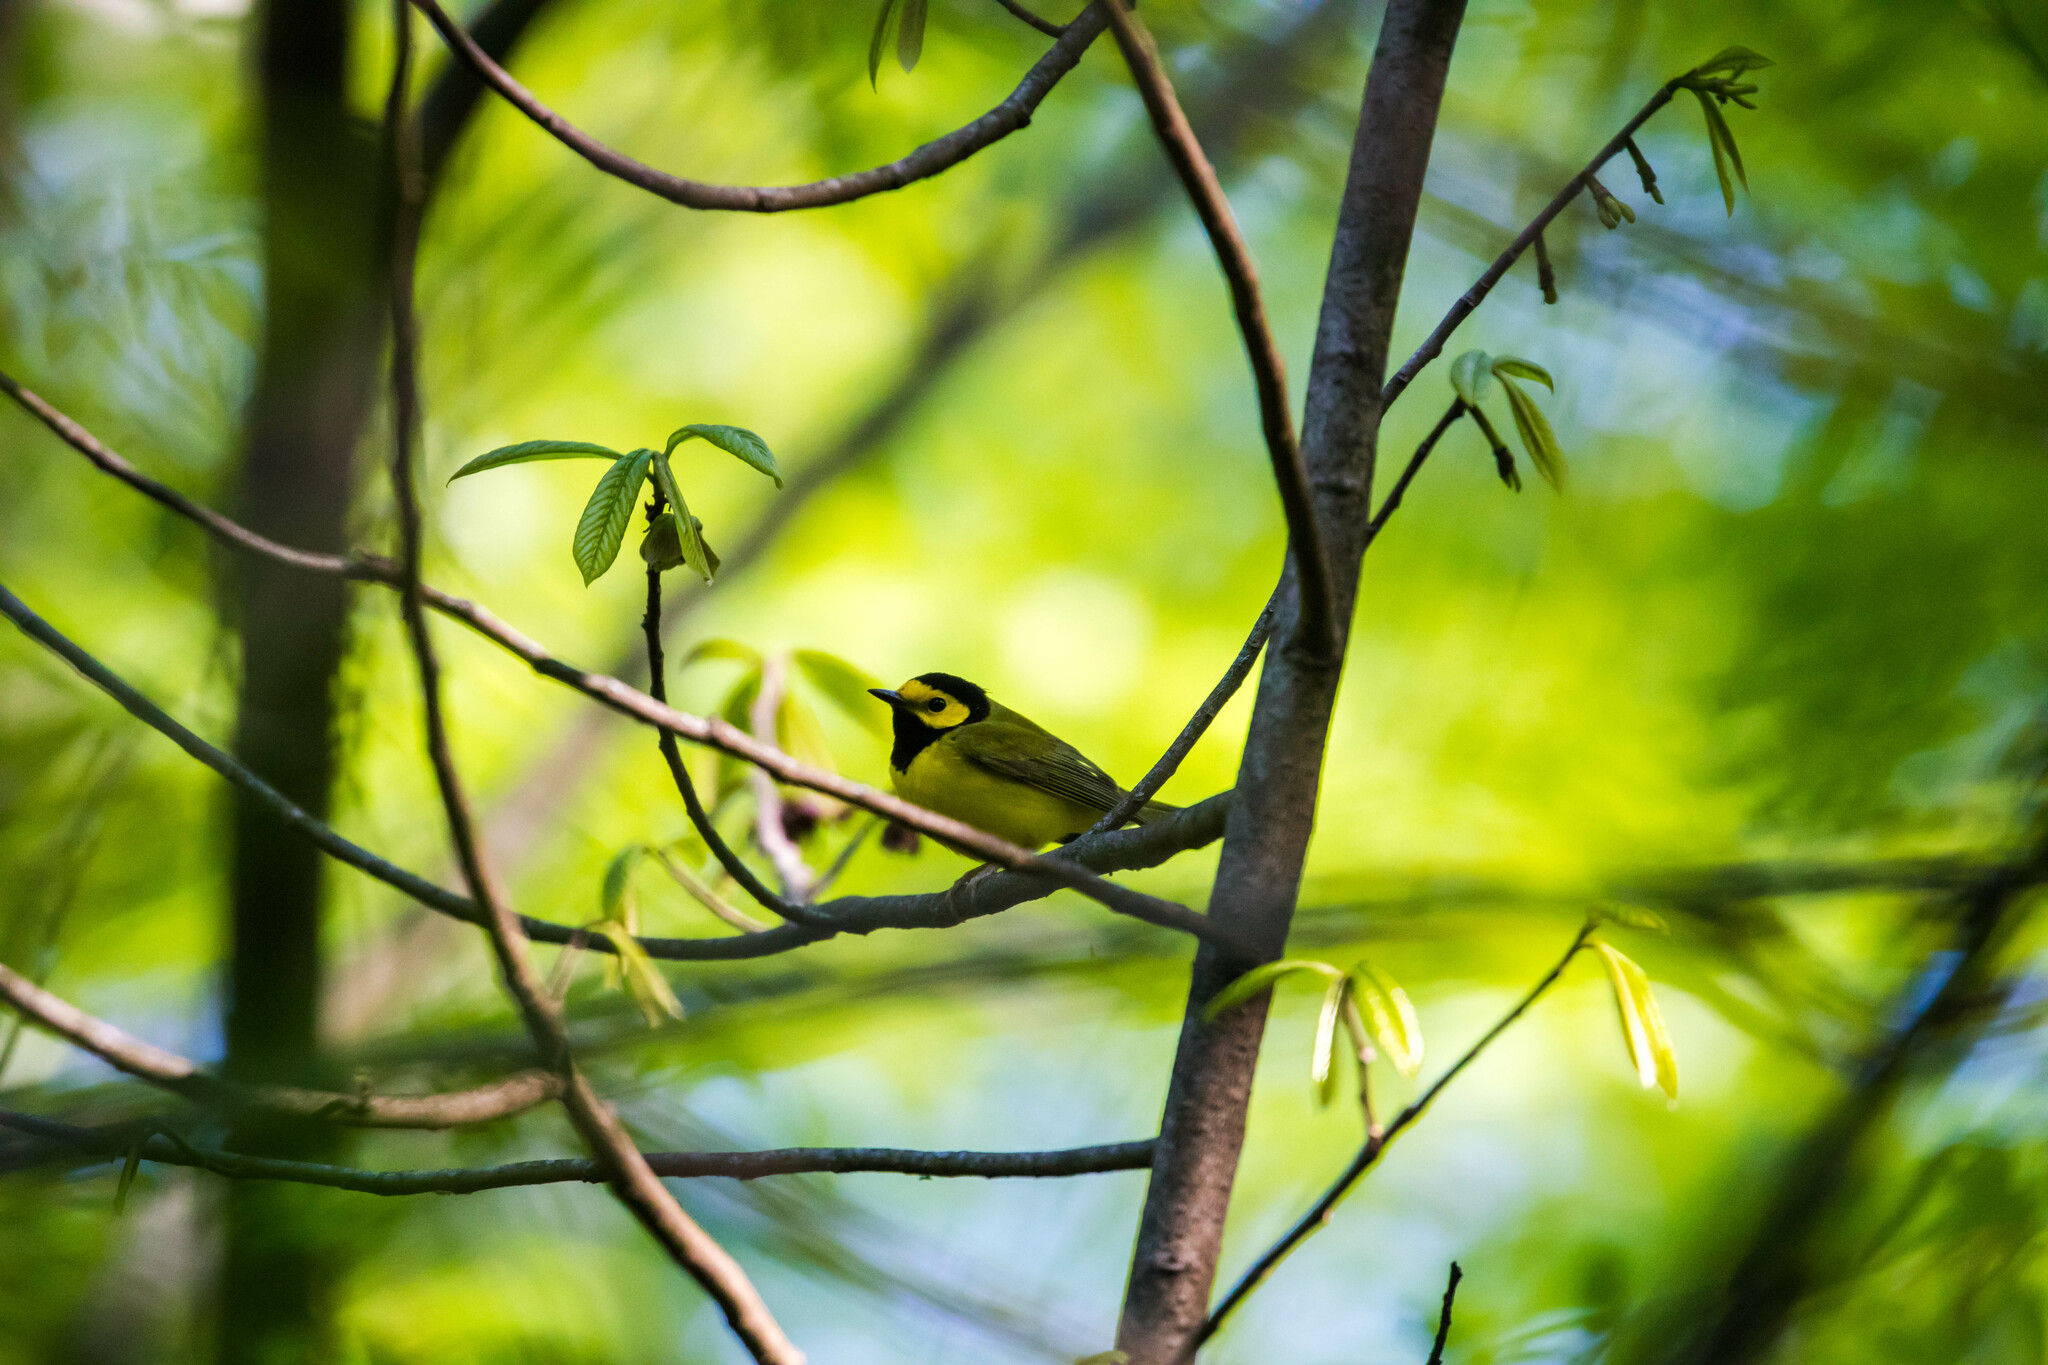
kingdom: Animalia
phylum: Chordata
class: Aves
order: Passeriformes
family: Parulidae
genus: Setophaga
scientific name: Setophaga citrina
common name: Hooded warbler
